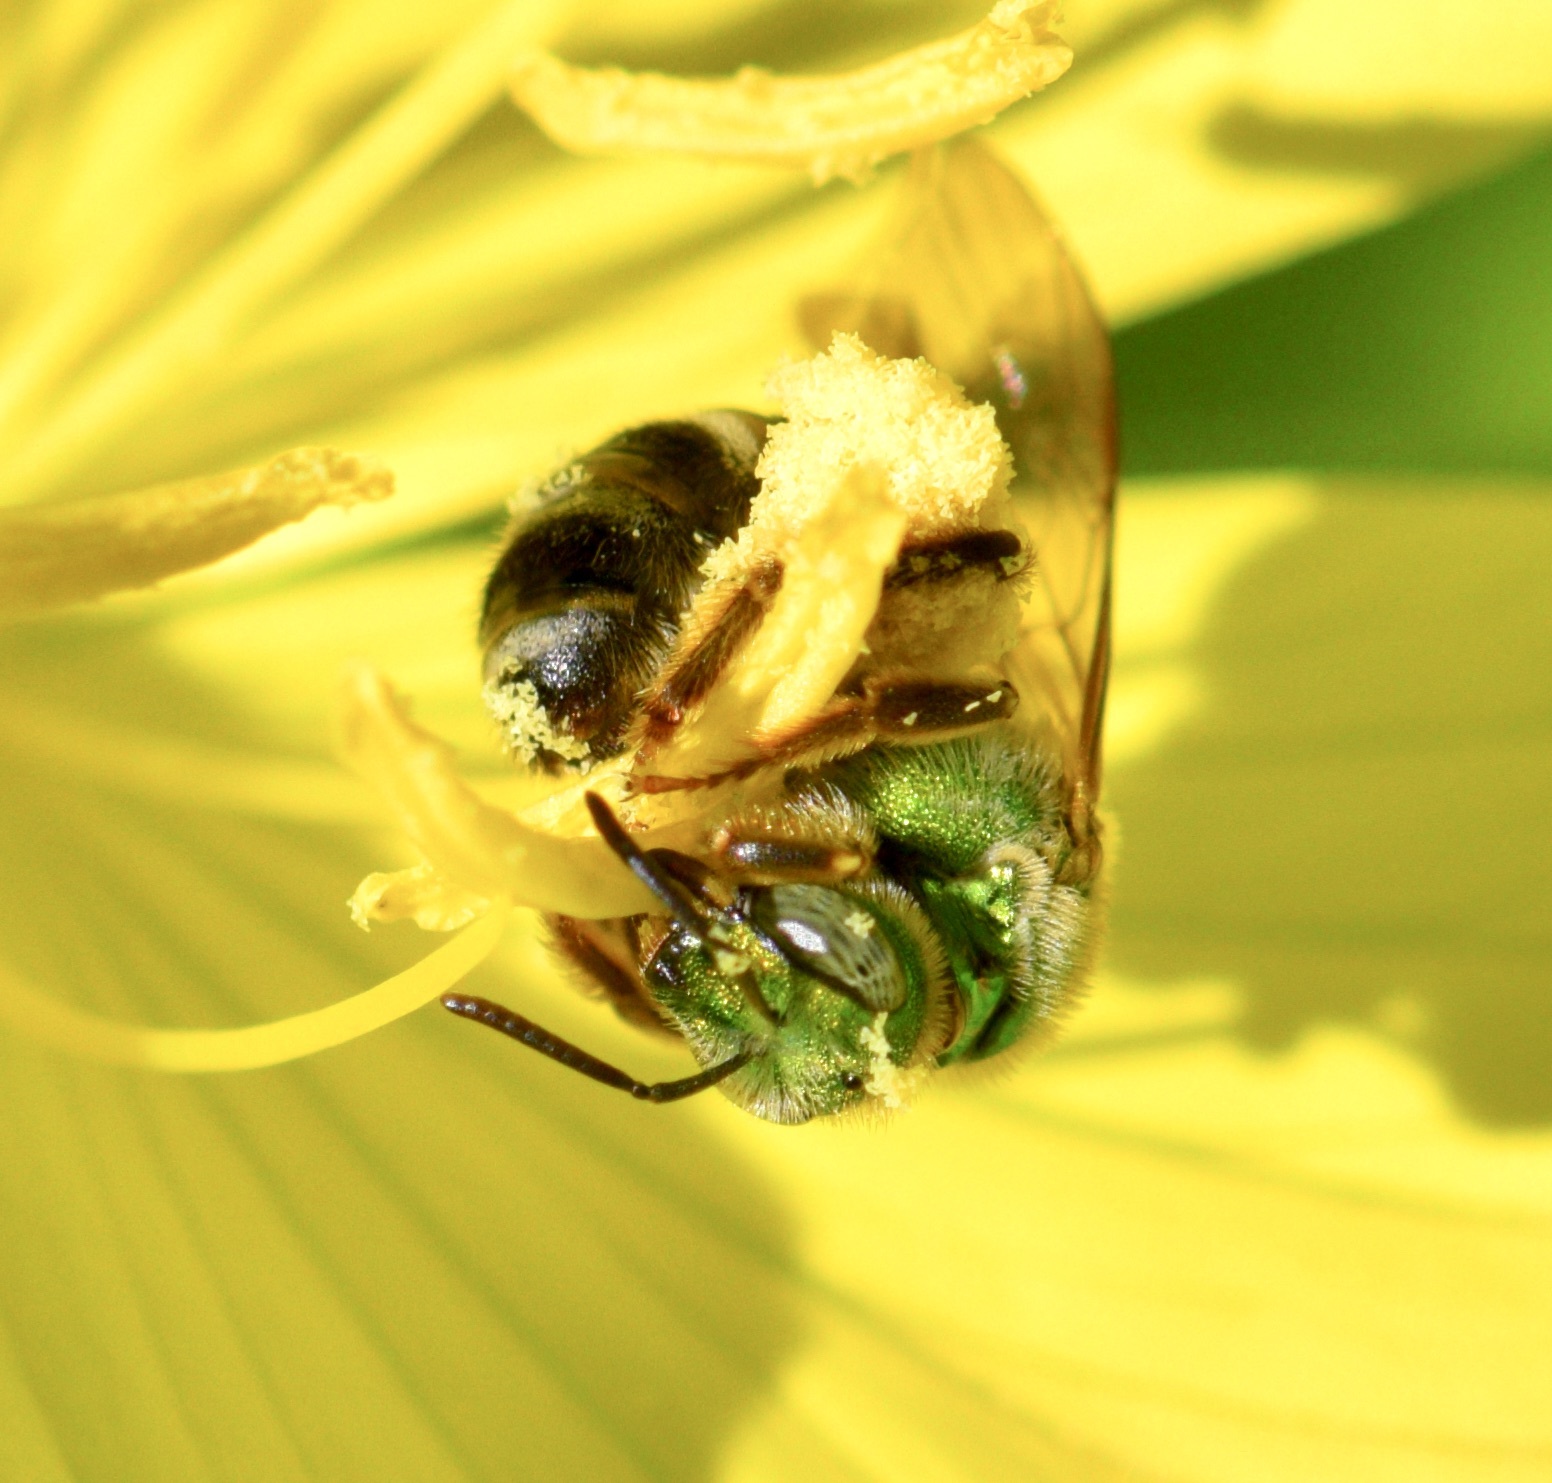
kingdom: Animalia
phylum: Arthropoda
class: Insecta
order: Hymenoptera
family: Halictidae
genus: Agapostemon
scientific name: Agapostemon virescens
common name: Bicolored striped sweat bee
